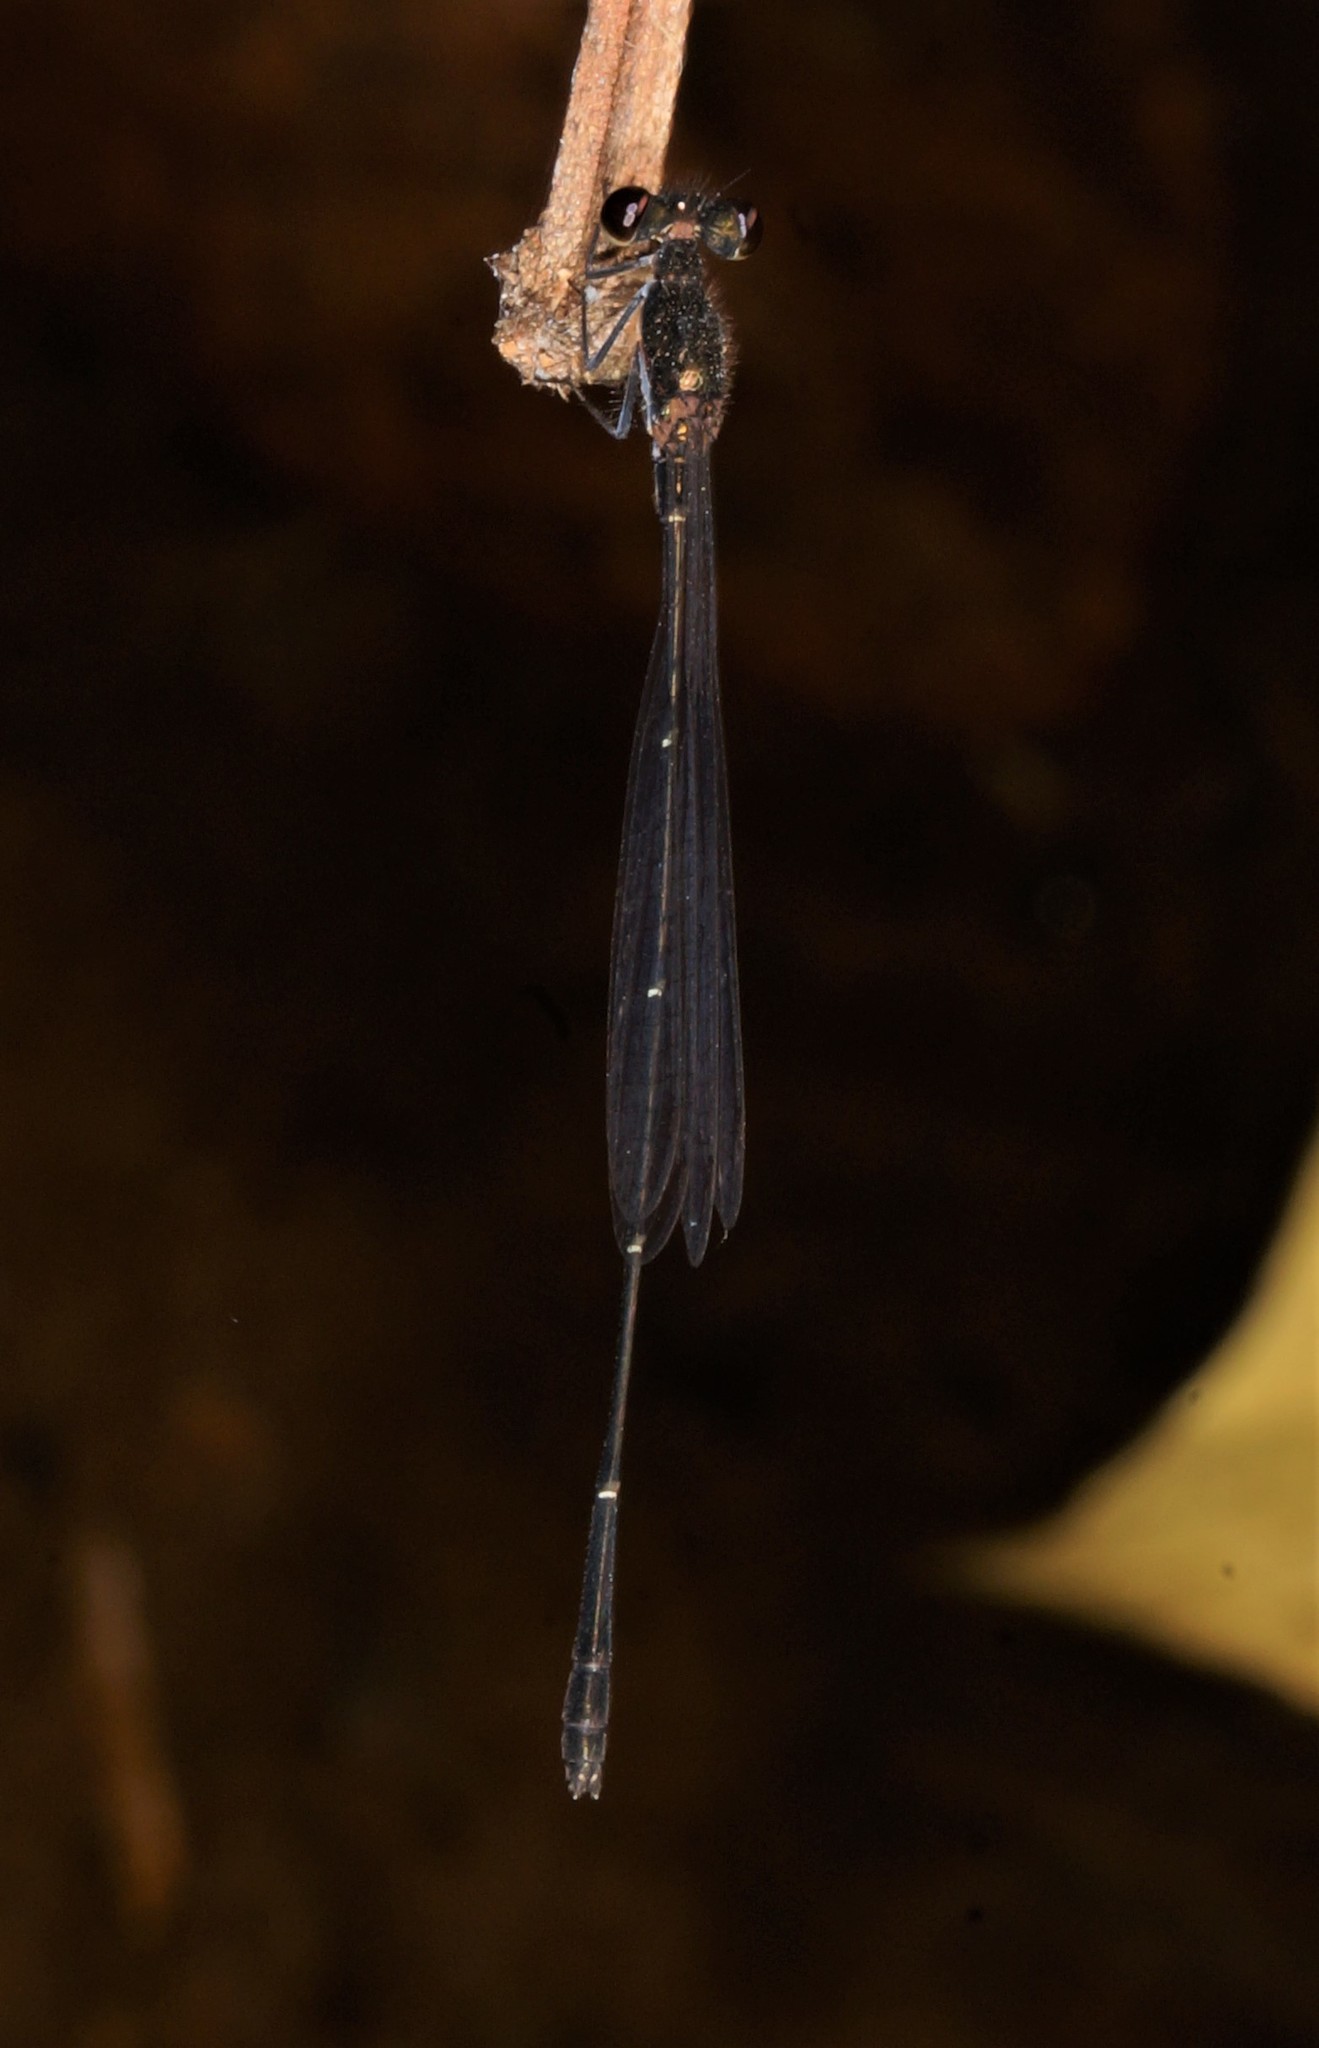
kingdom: Animalia
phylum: Arthropoda
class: Insecta
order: Odonata
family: Platycnemididae
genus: Prodasineura
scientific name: Prodasineura autumnalis
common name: Black threadtail
